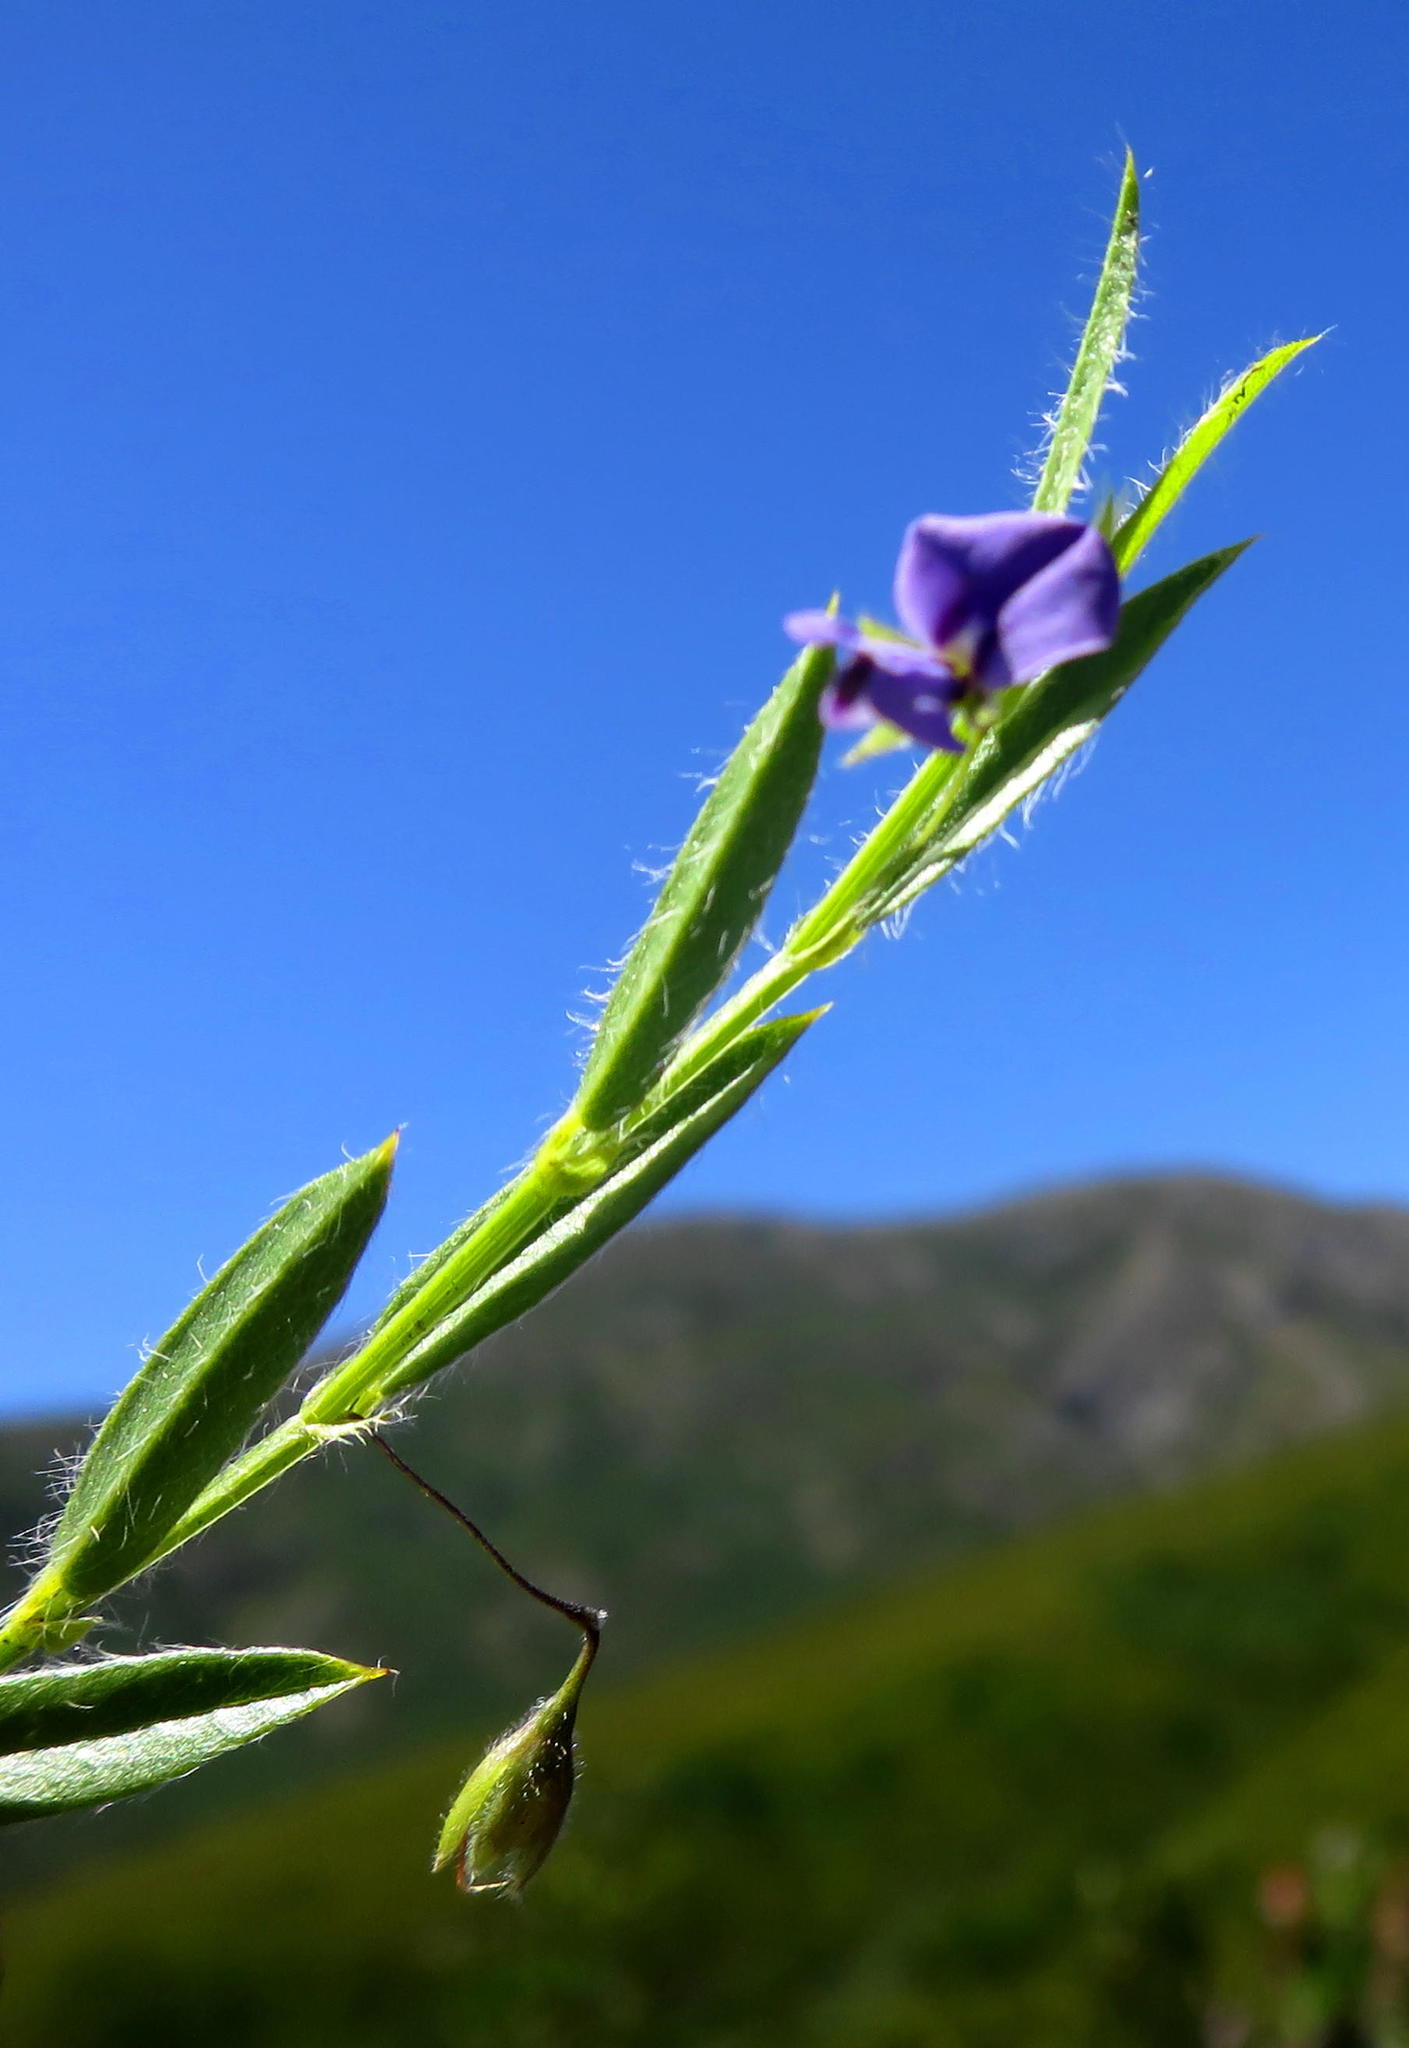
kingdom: Plantae
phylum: Tracheophyta
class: Magnoliopsida
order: Fabales
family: Fabaceae
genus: Psoralea
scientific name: Psoralea plauta
